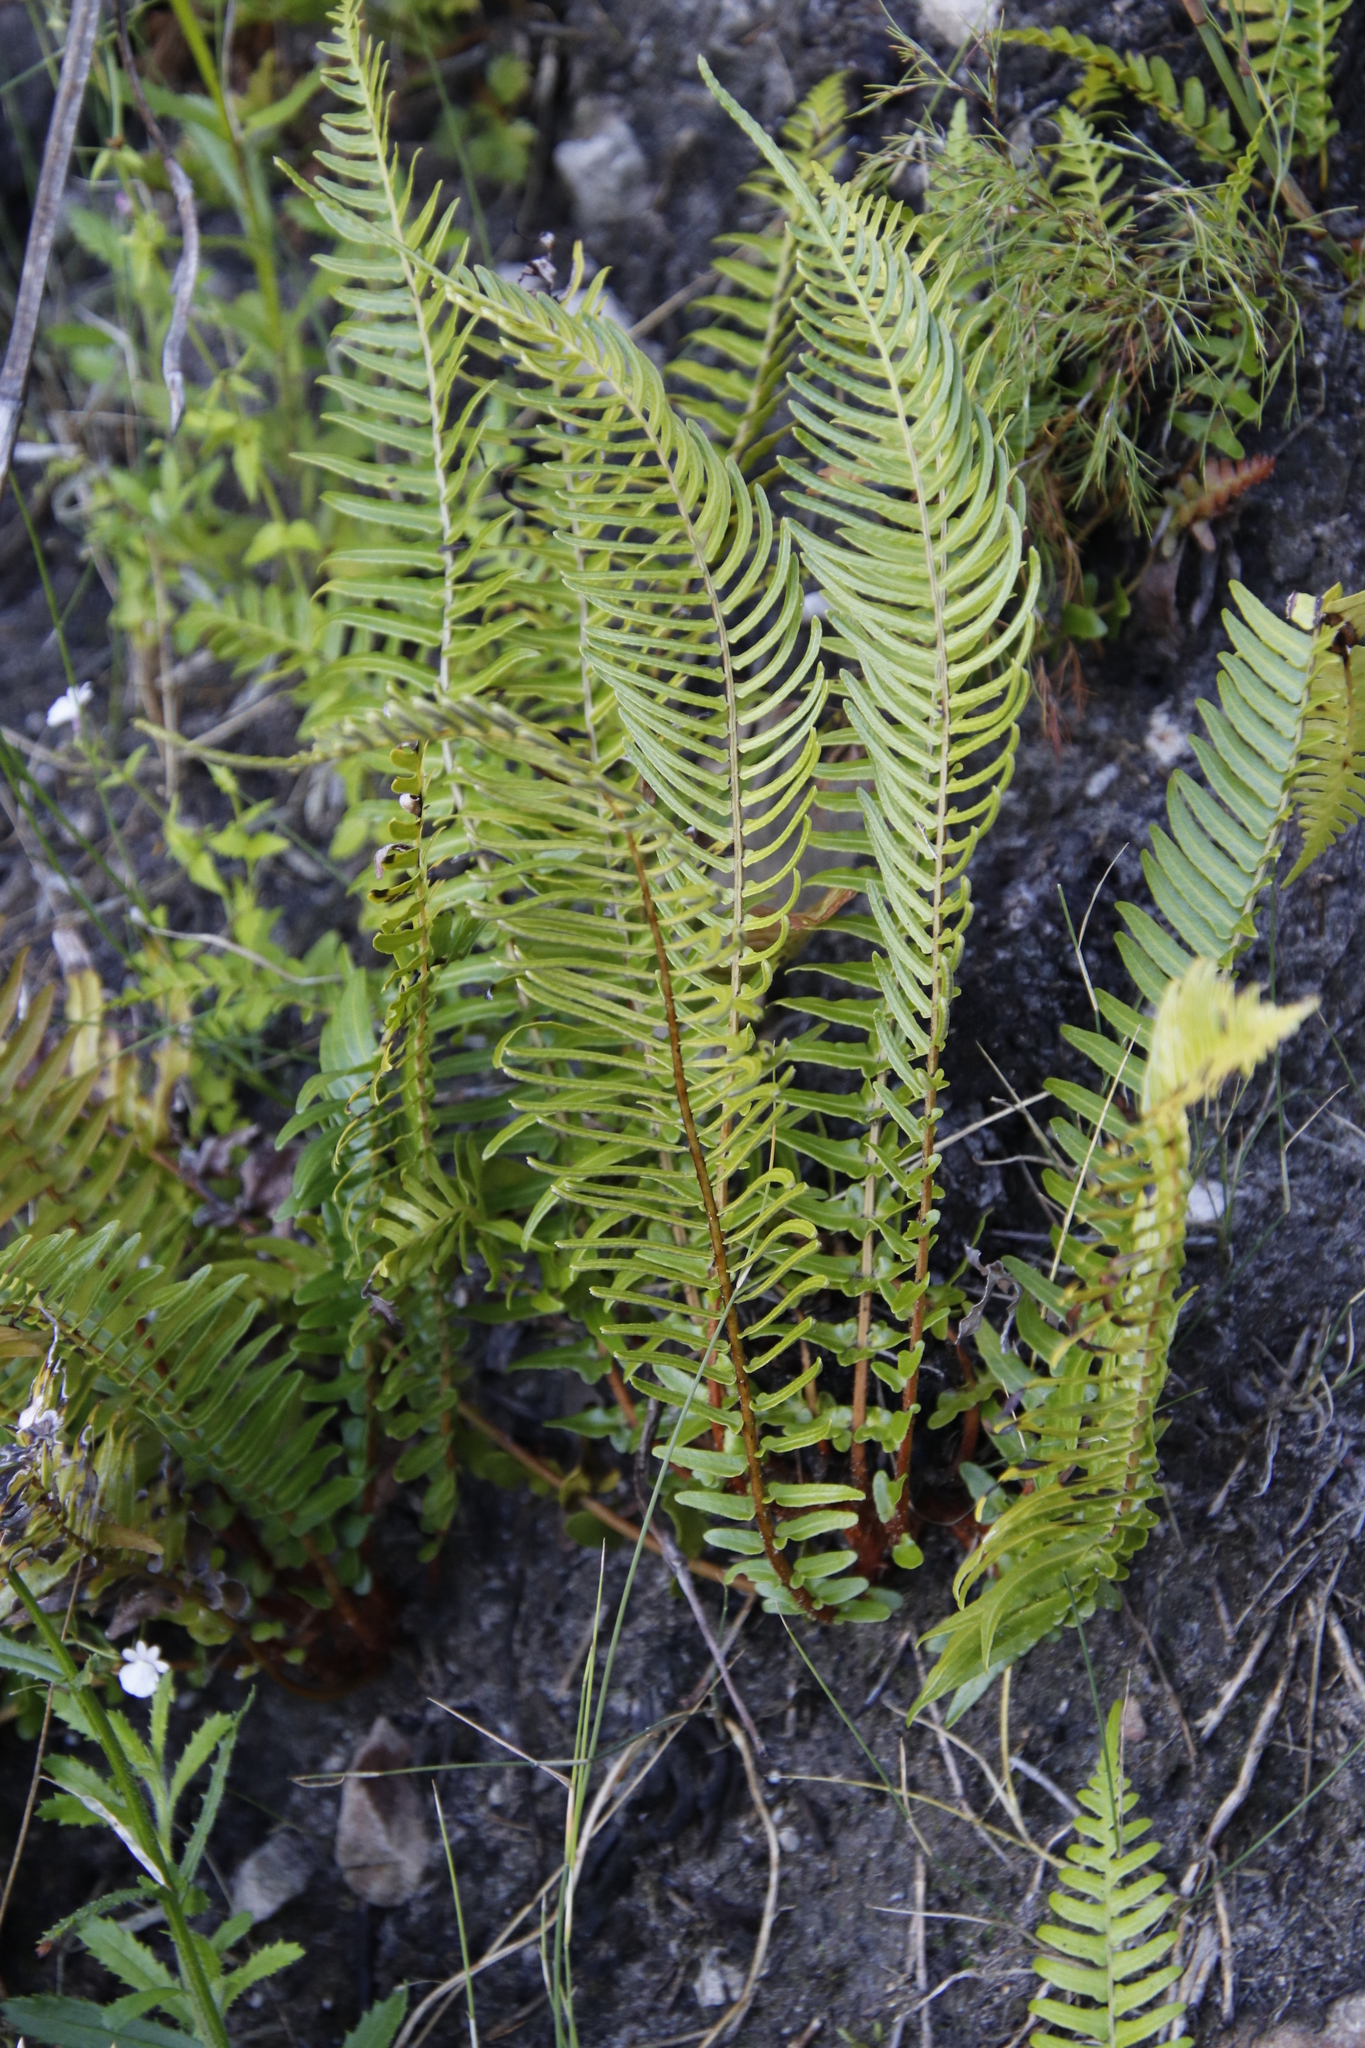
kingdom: Plantae
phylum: Tracheophyta
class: Polypodiopsida
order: Polypodiales
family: Blechnaceae
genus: Blechnum
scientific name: Blechnum punctulatum
